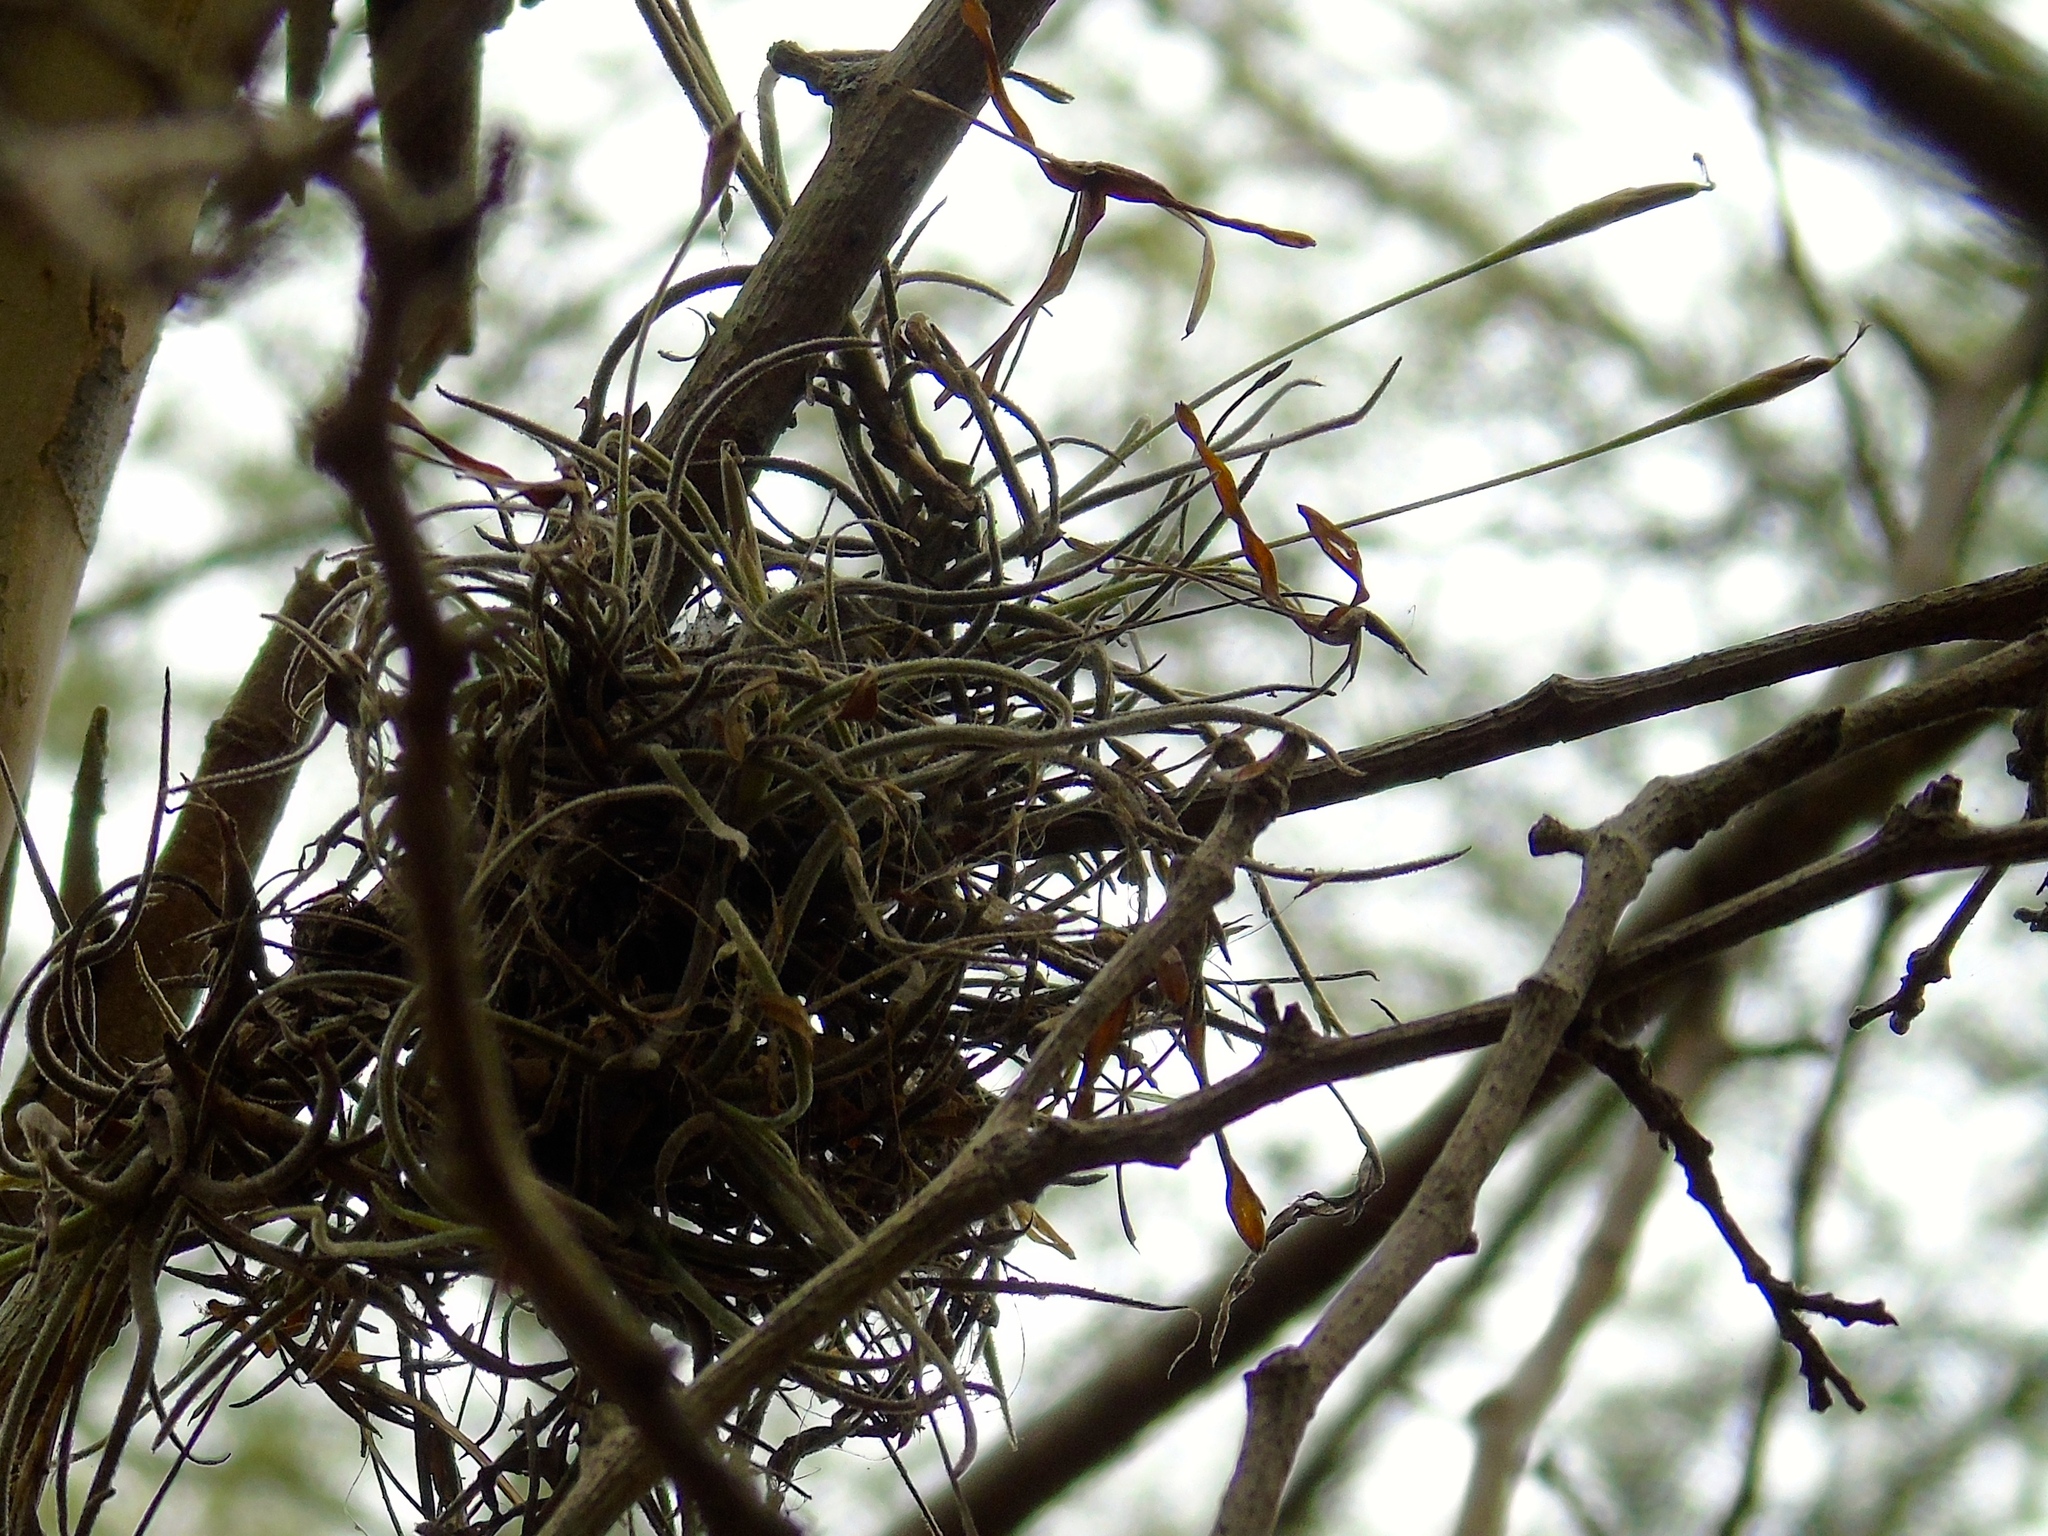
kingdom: Plantae
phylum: Tracheophyta
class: Liliopsida
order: Poales
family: Bromeliaceae
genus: Tillandsia
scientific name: Tillandsia recurvata
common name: Small ballmoss
